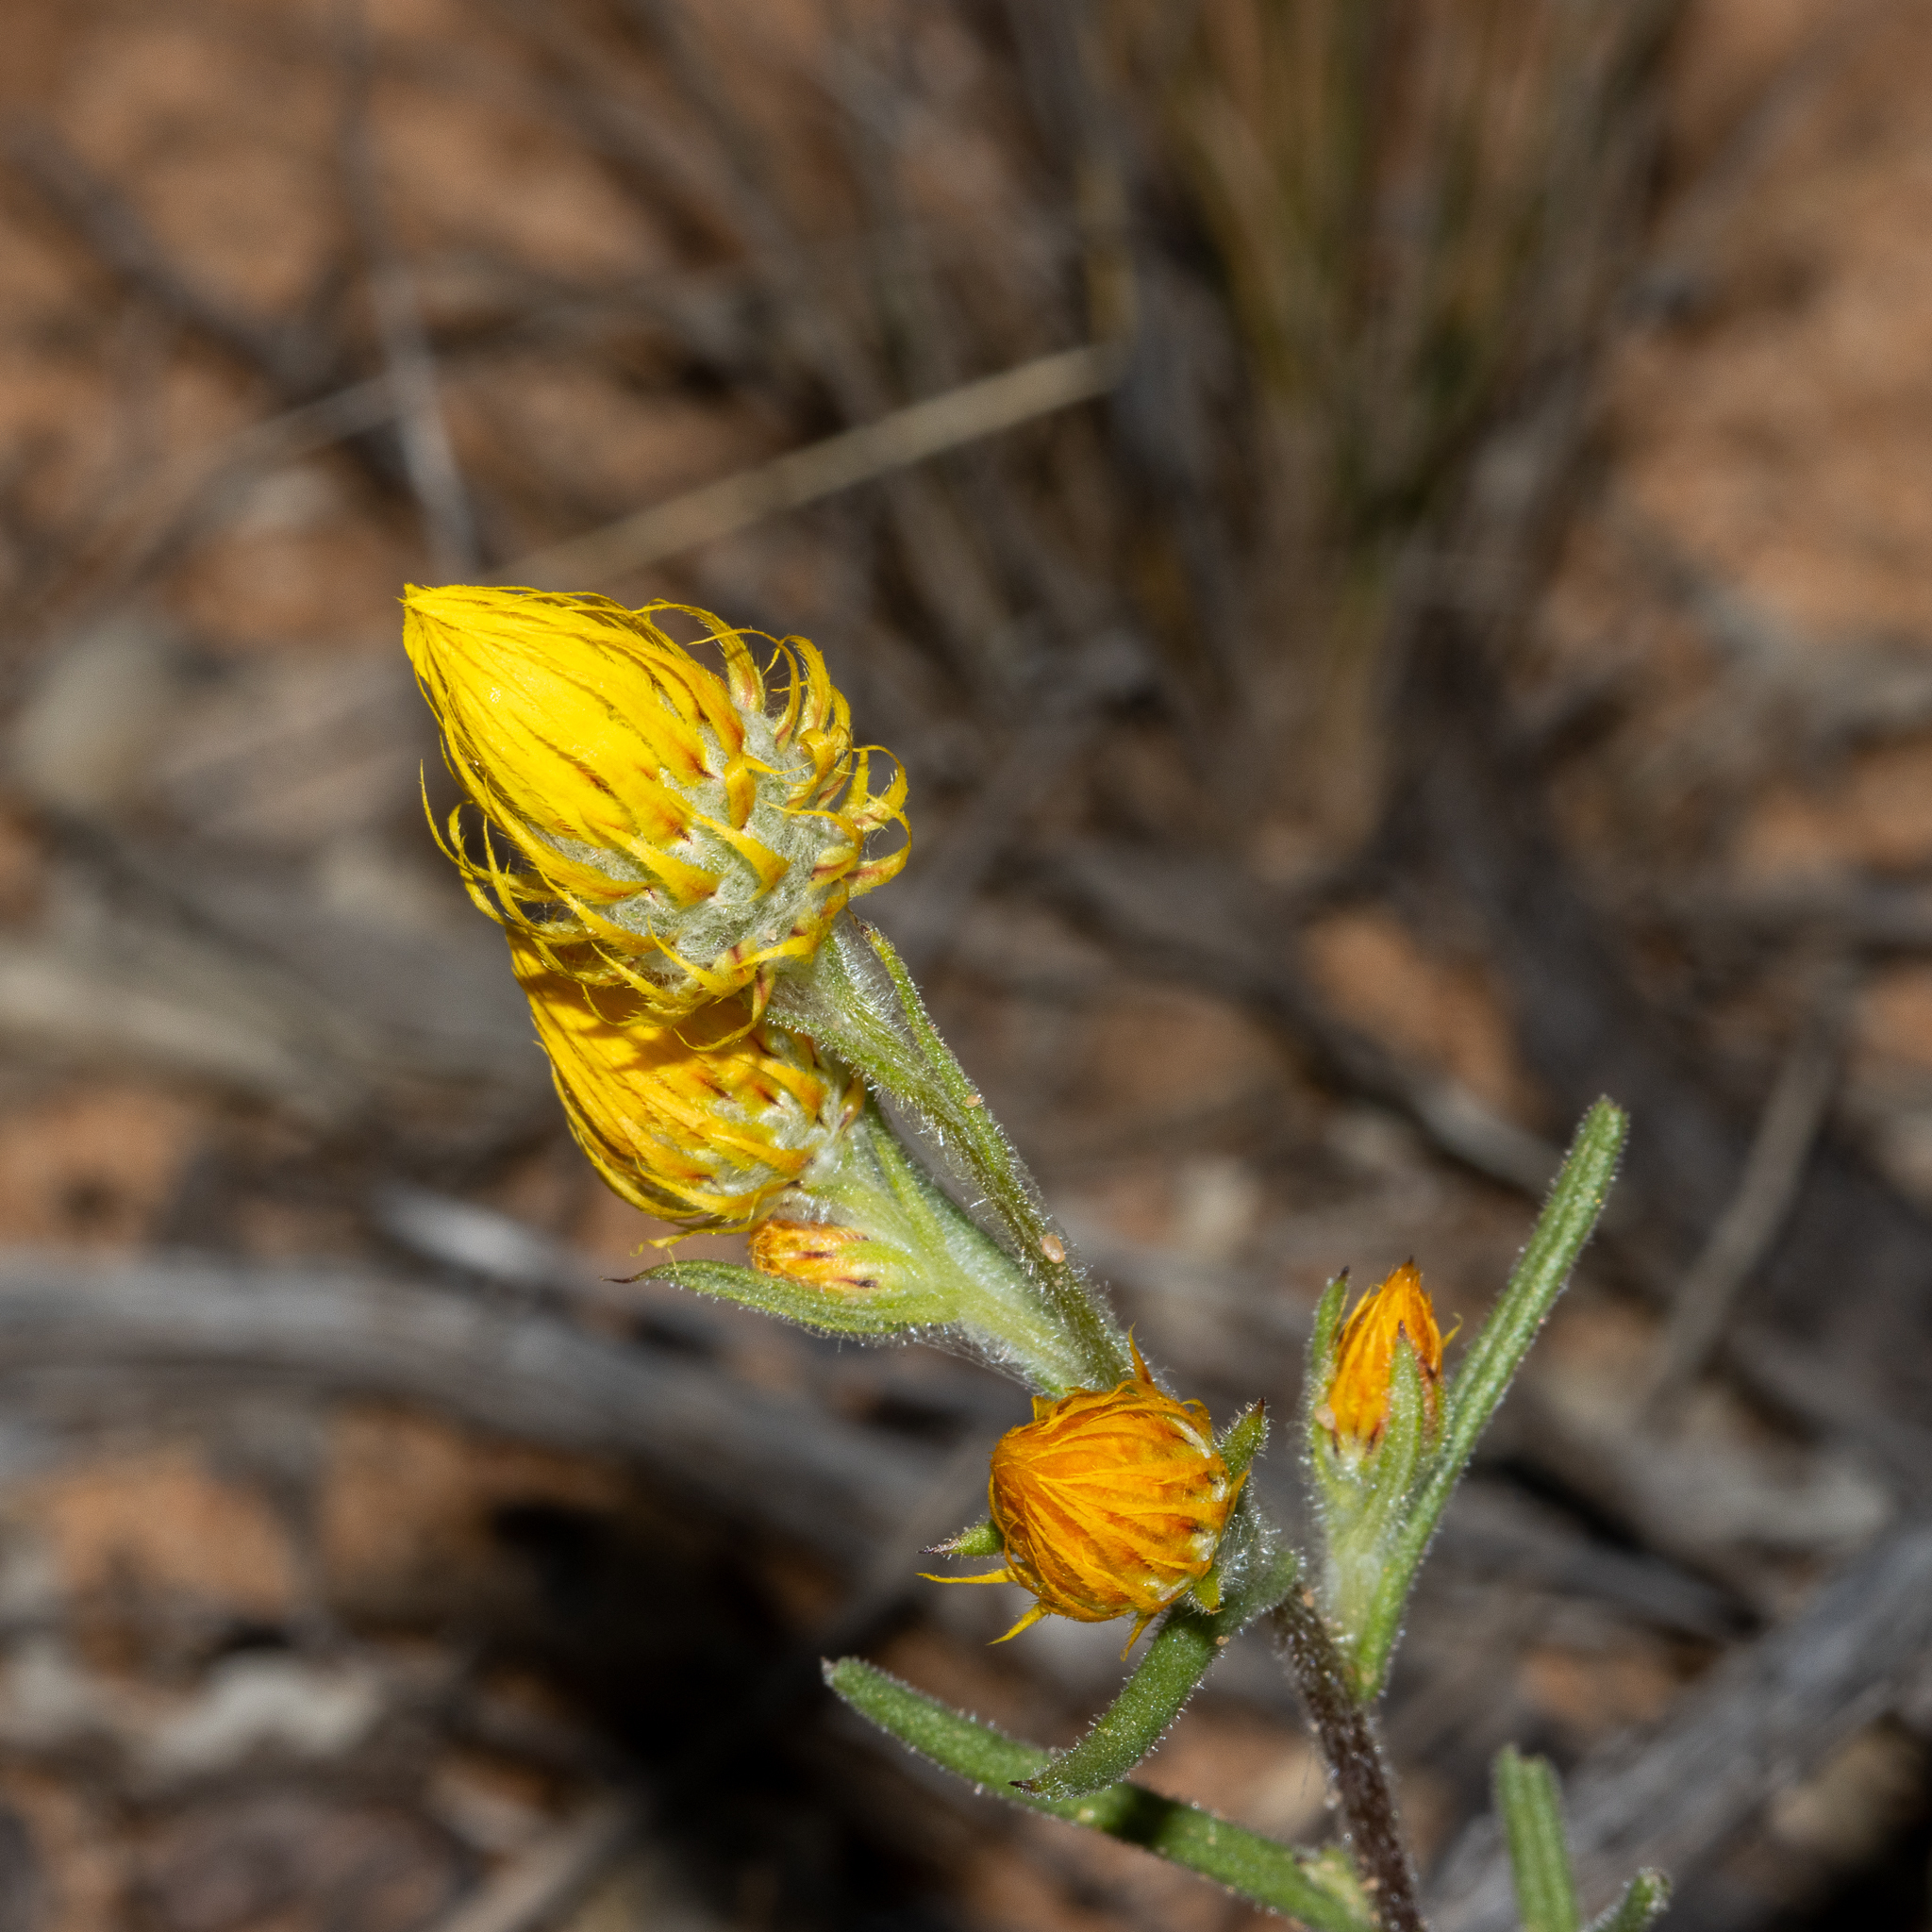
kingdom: Plantae
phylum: Tracheophyta
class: Magnoliopsida
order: Asterales
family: Asteraceae
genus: Waitzia
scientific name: Waitzia acuminata
